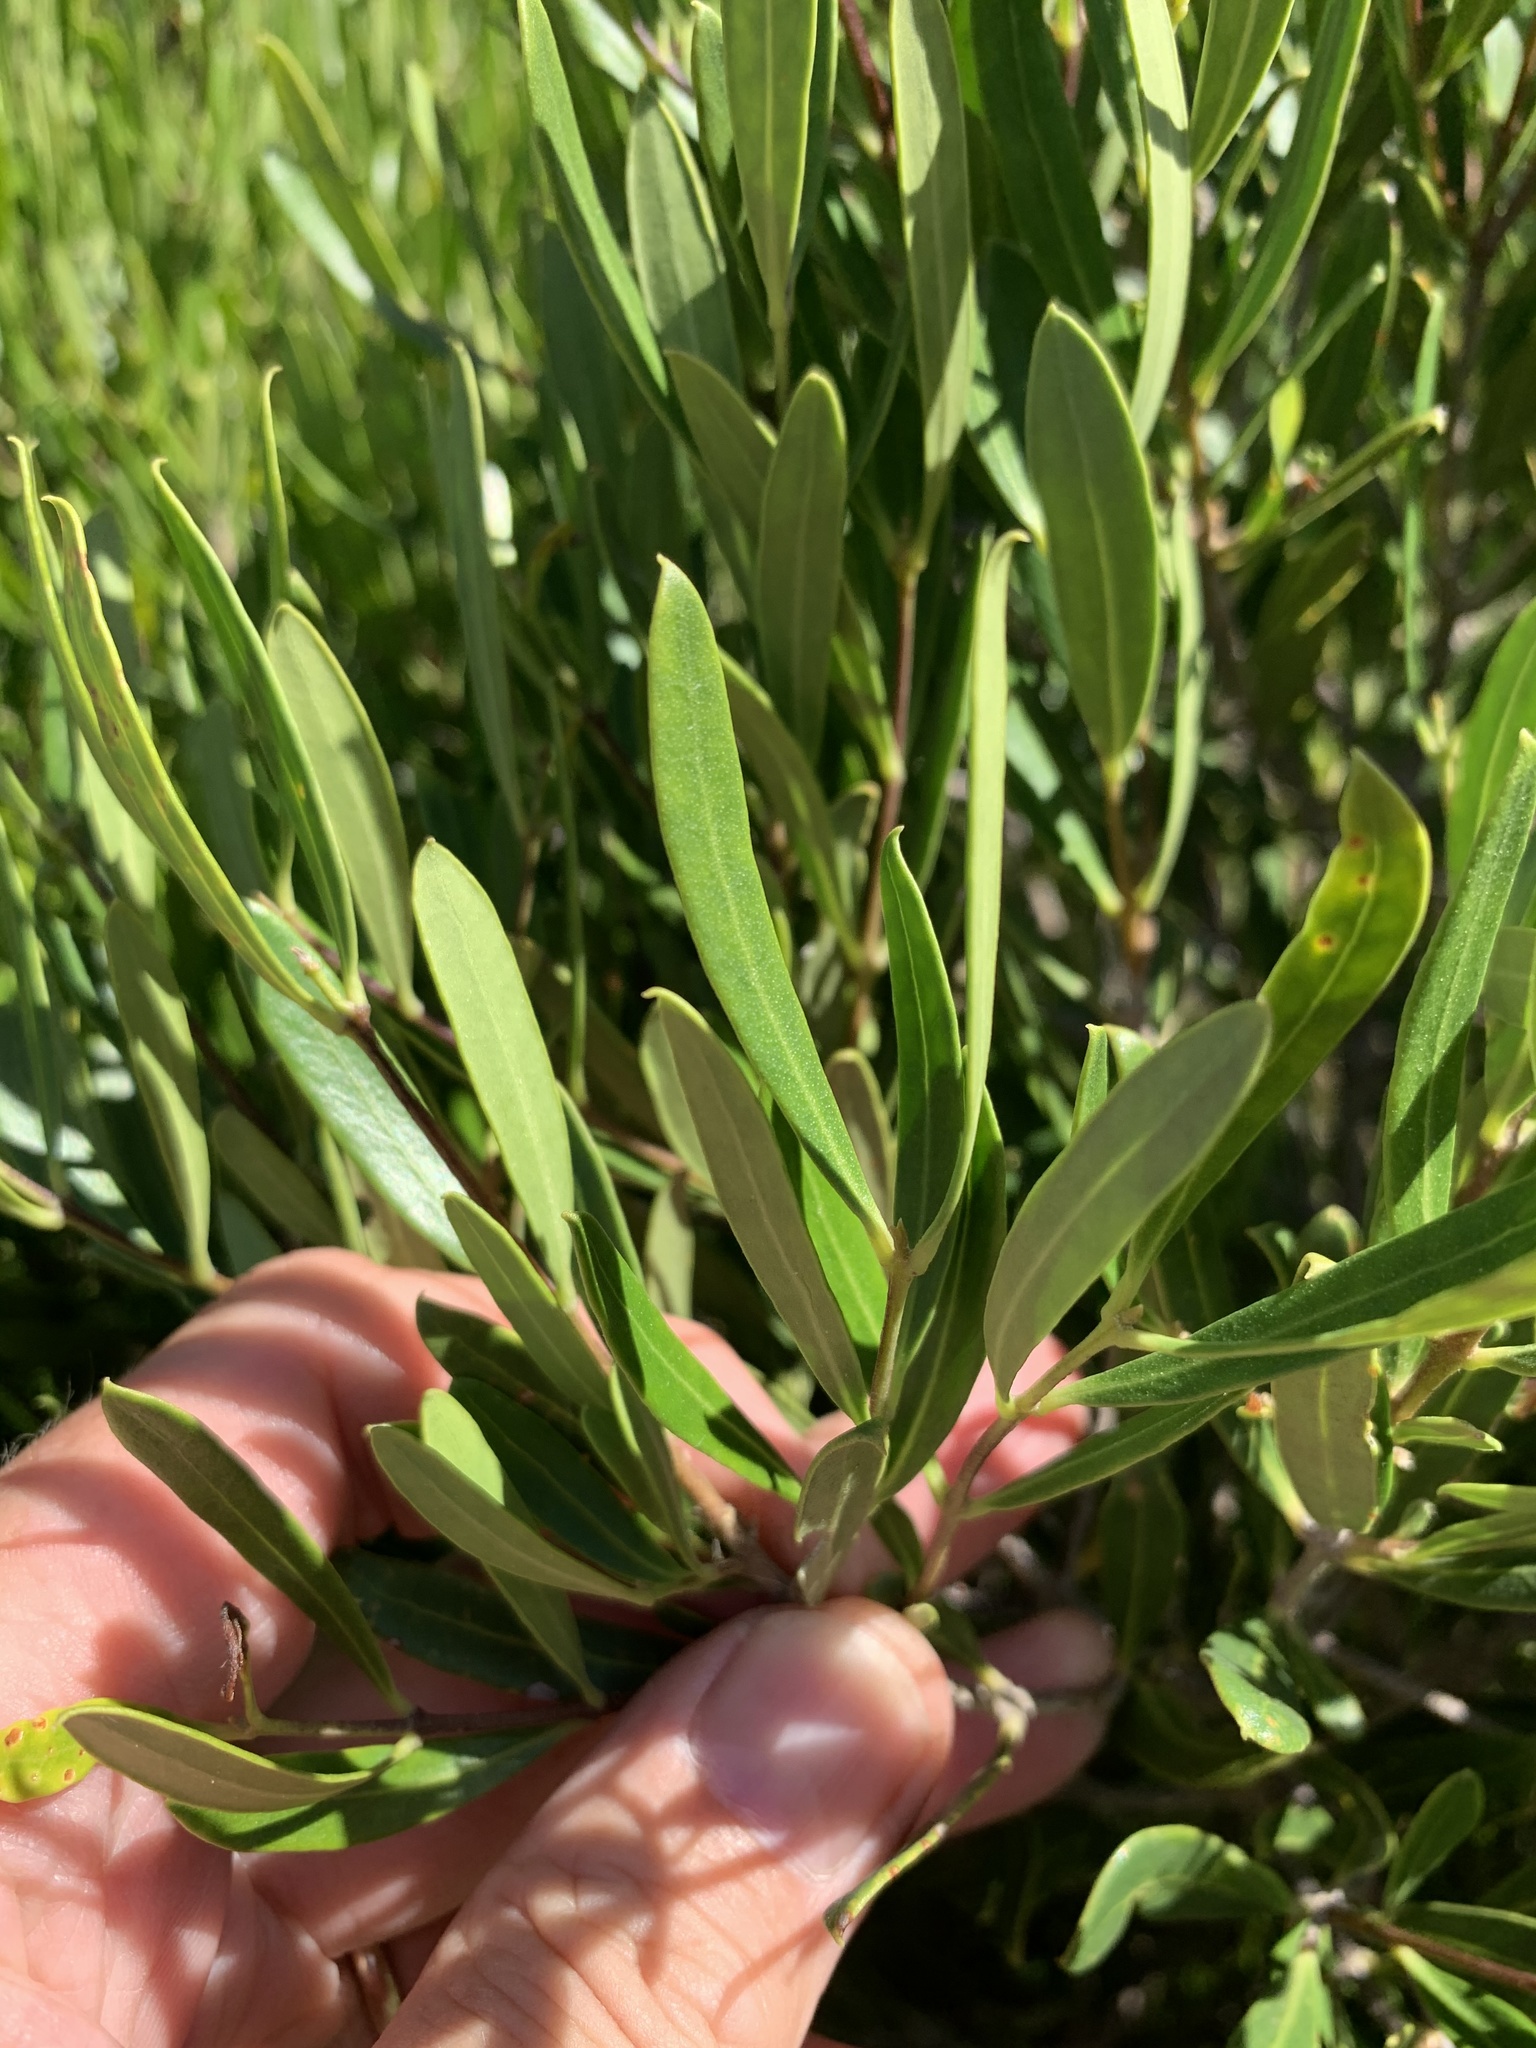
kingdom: Plantae
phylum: Tracheophyta
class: Magnoliopsida
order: Lamiales
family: Oleaceae
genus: Olea
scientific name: Olea exasperata
